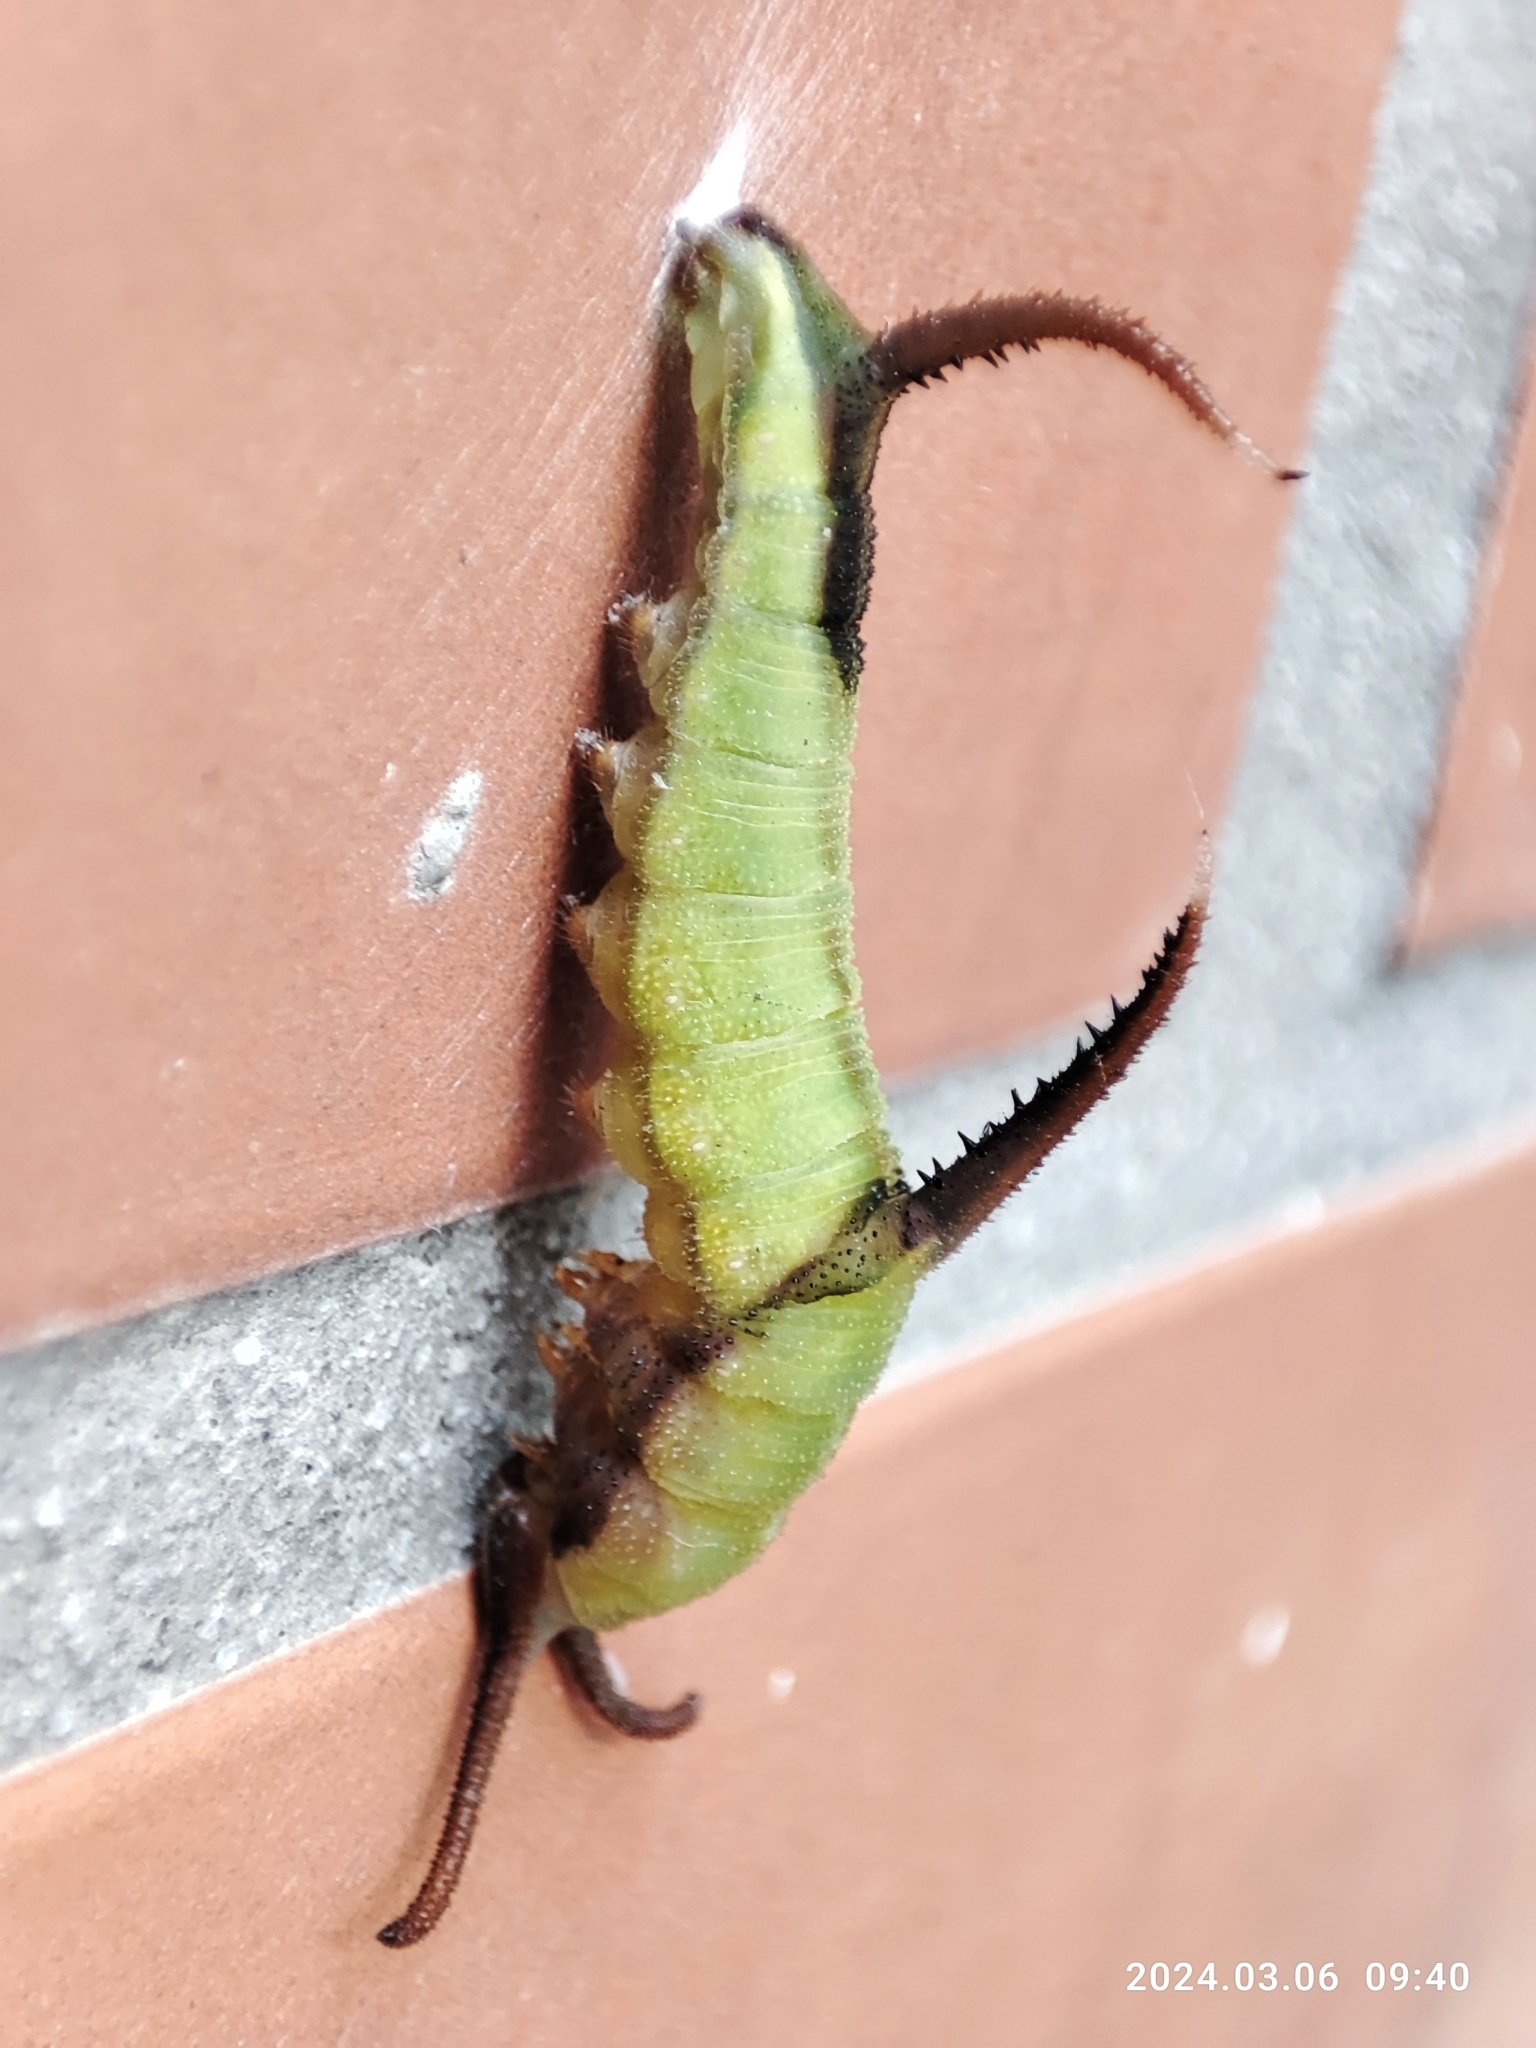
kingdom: Animalia
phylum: Arthropoda
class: Insecta
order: Lepidoptera
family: Nymphalidae
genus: Cyrestis
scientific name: Cyrestis thyodamas
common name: Common mapwing
